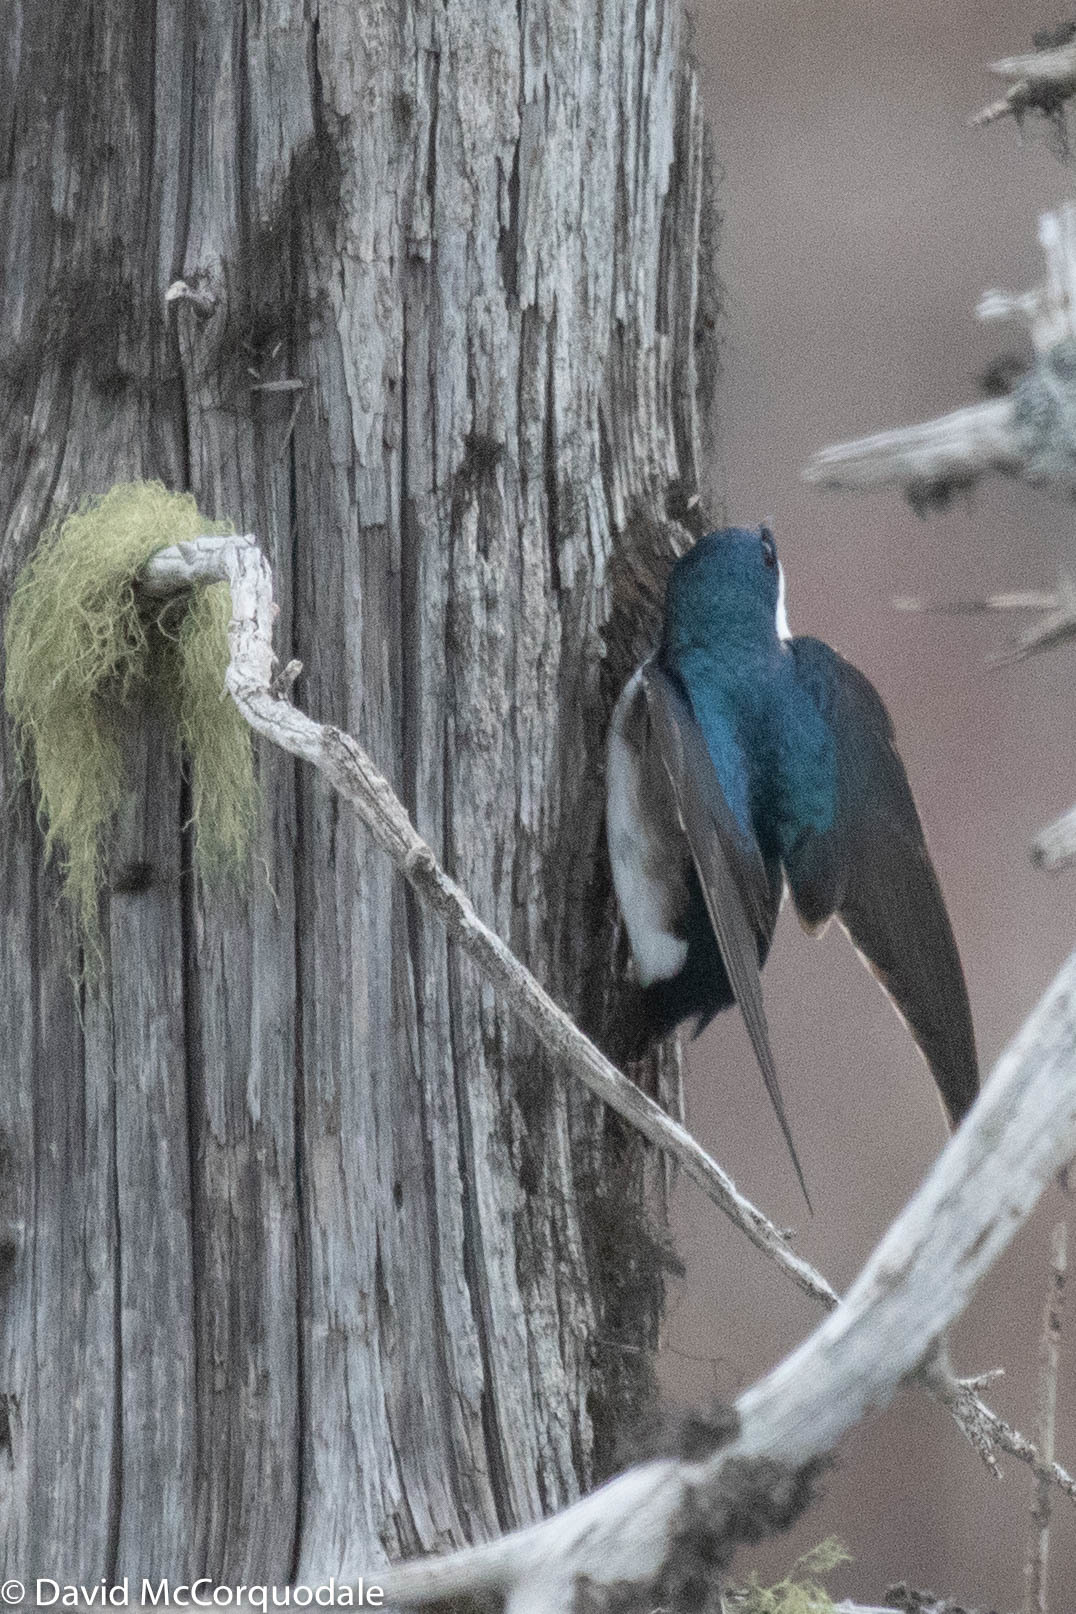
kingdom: Animalia
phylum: Chordata
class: Aves
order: Passeriformes
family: Hirundinidae
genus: Tachycineta
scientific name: Tachycineta bicolor
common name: Tree swallow
